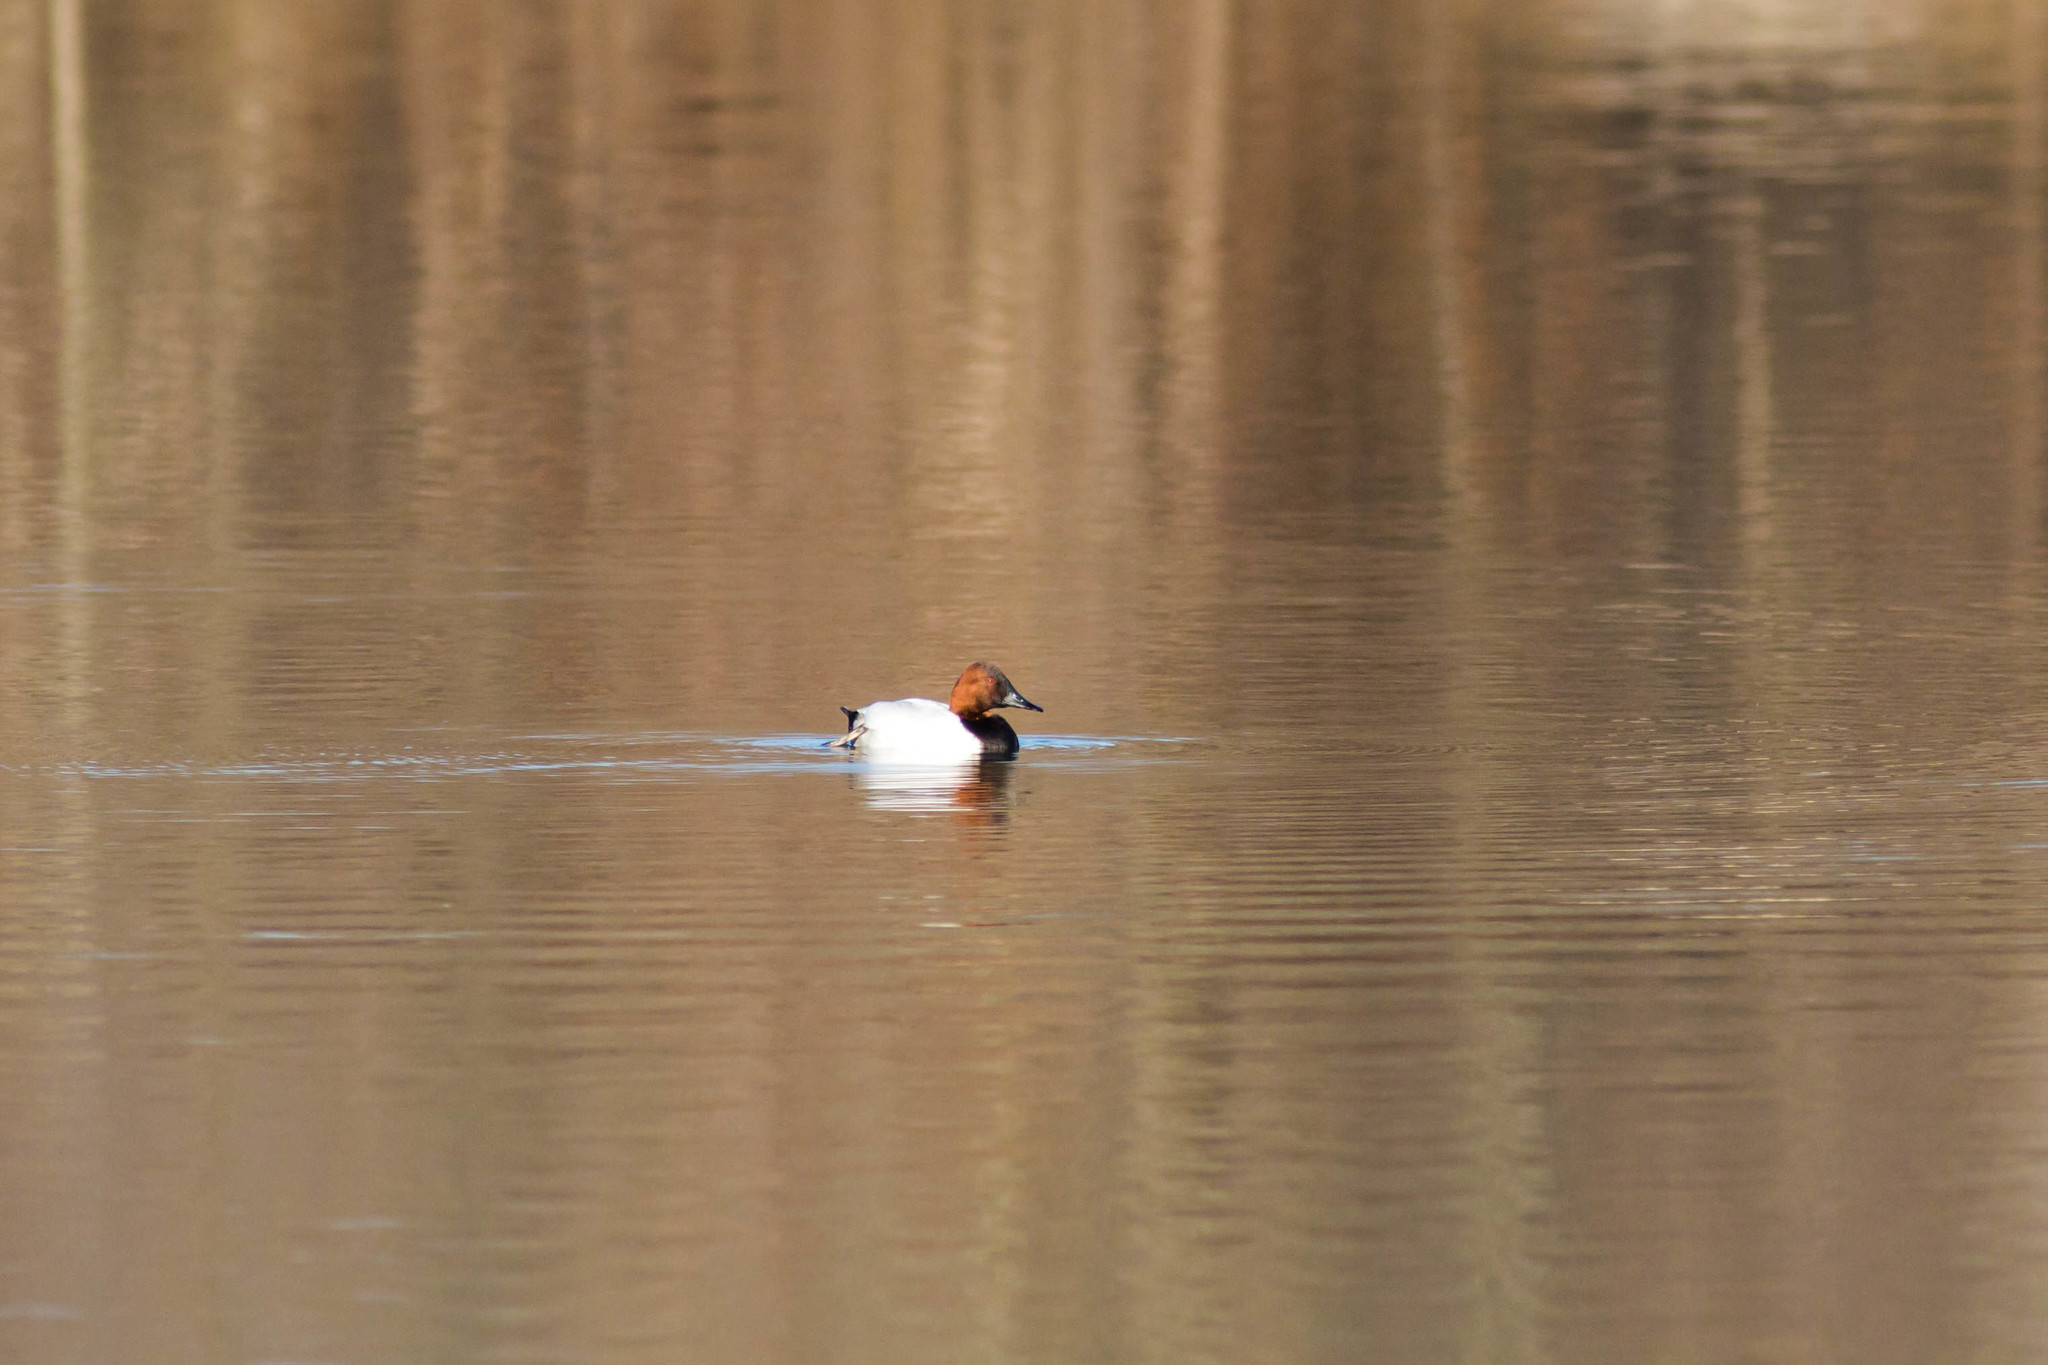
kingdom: Animalia
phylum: Chordata
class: Aves
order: Anseriformes
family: Anatidae
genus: Aythya
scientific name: Aythya valisineria
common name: Canvasback
